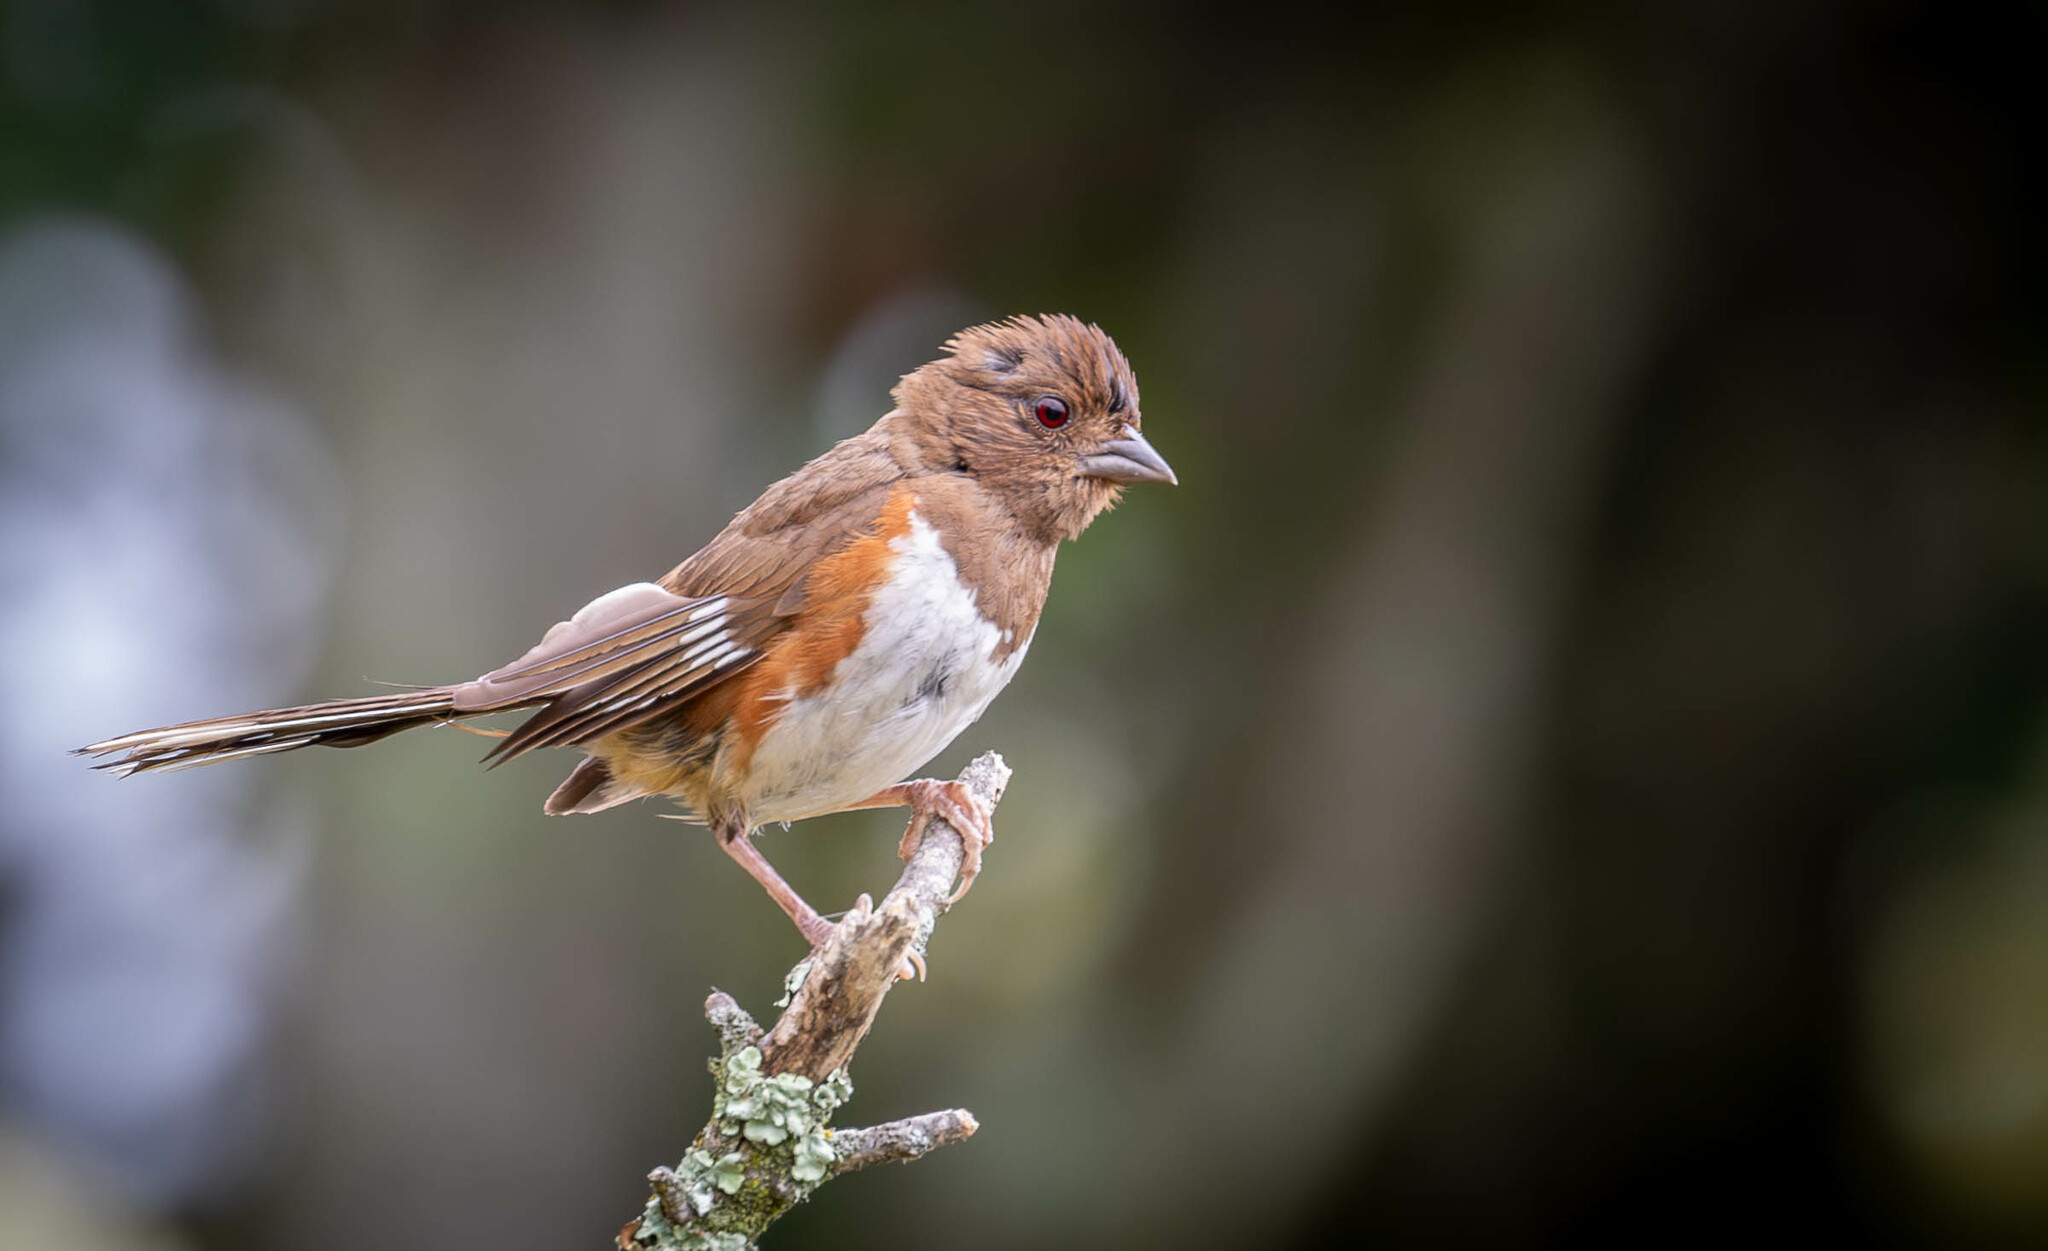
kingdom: Animalia
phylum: Chordata
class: Aves
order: Passeriformes
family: Passerellidae
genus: Pipilo
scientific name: Pipilo erythrophthalmus
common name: Eastern towhee
